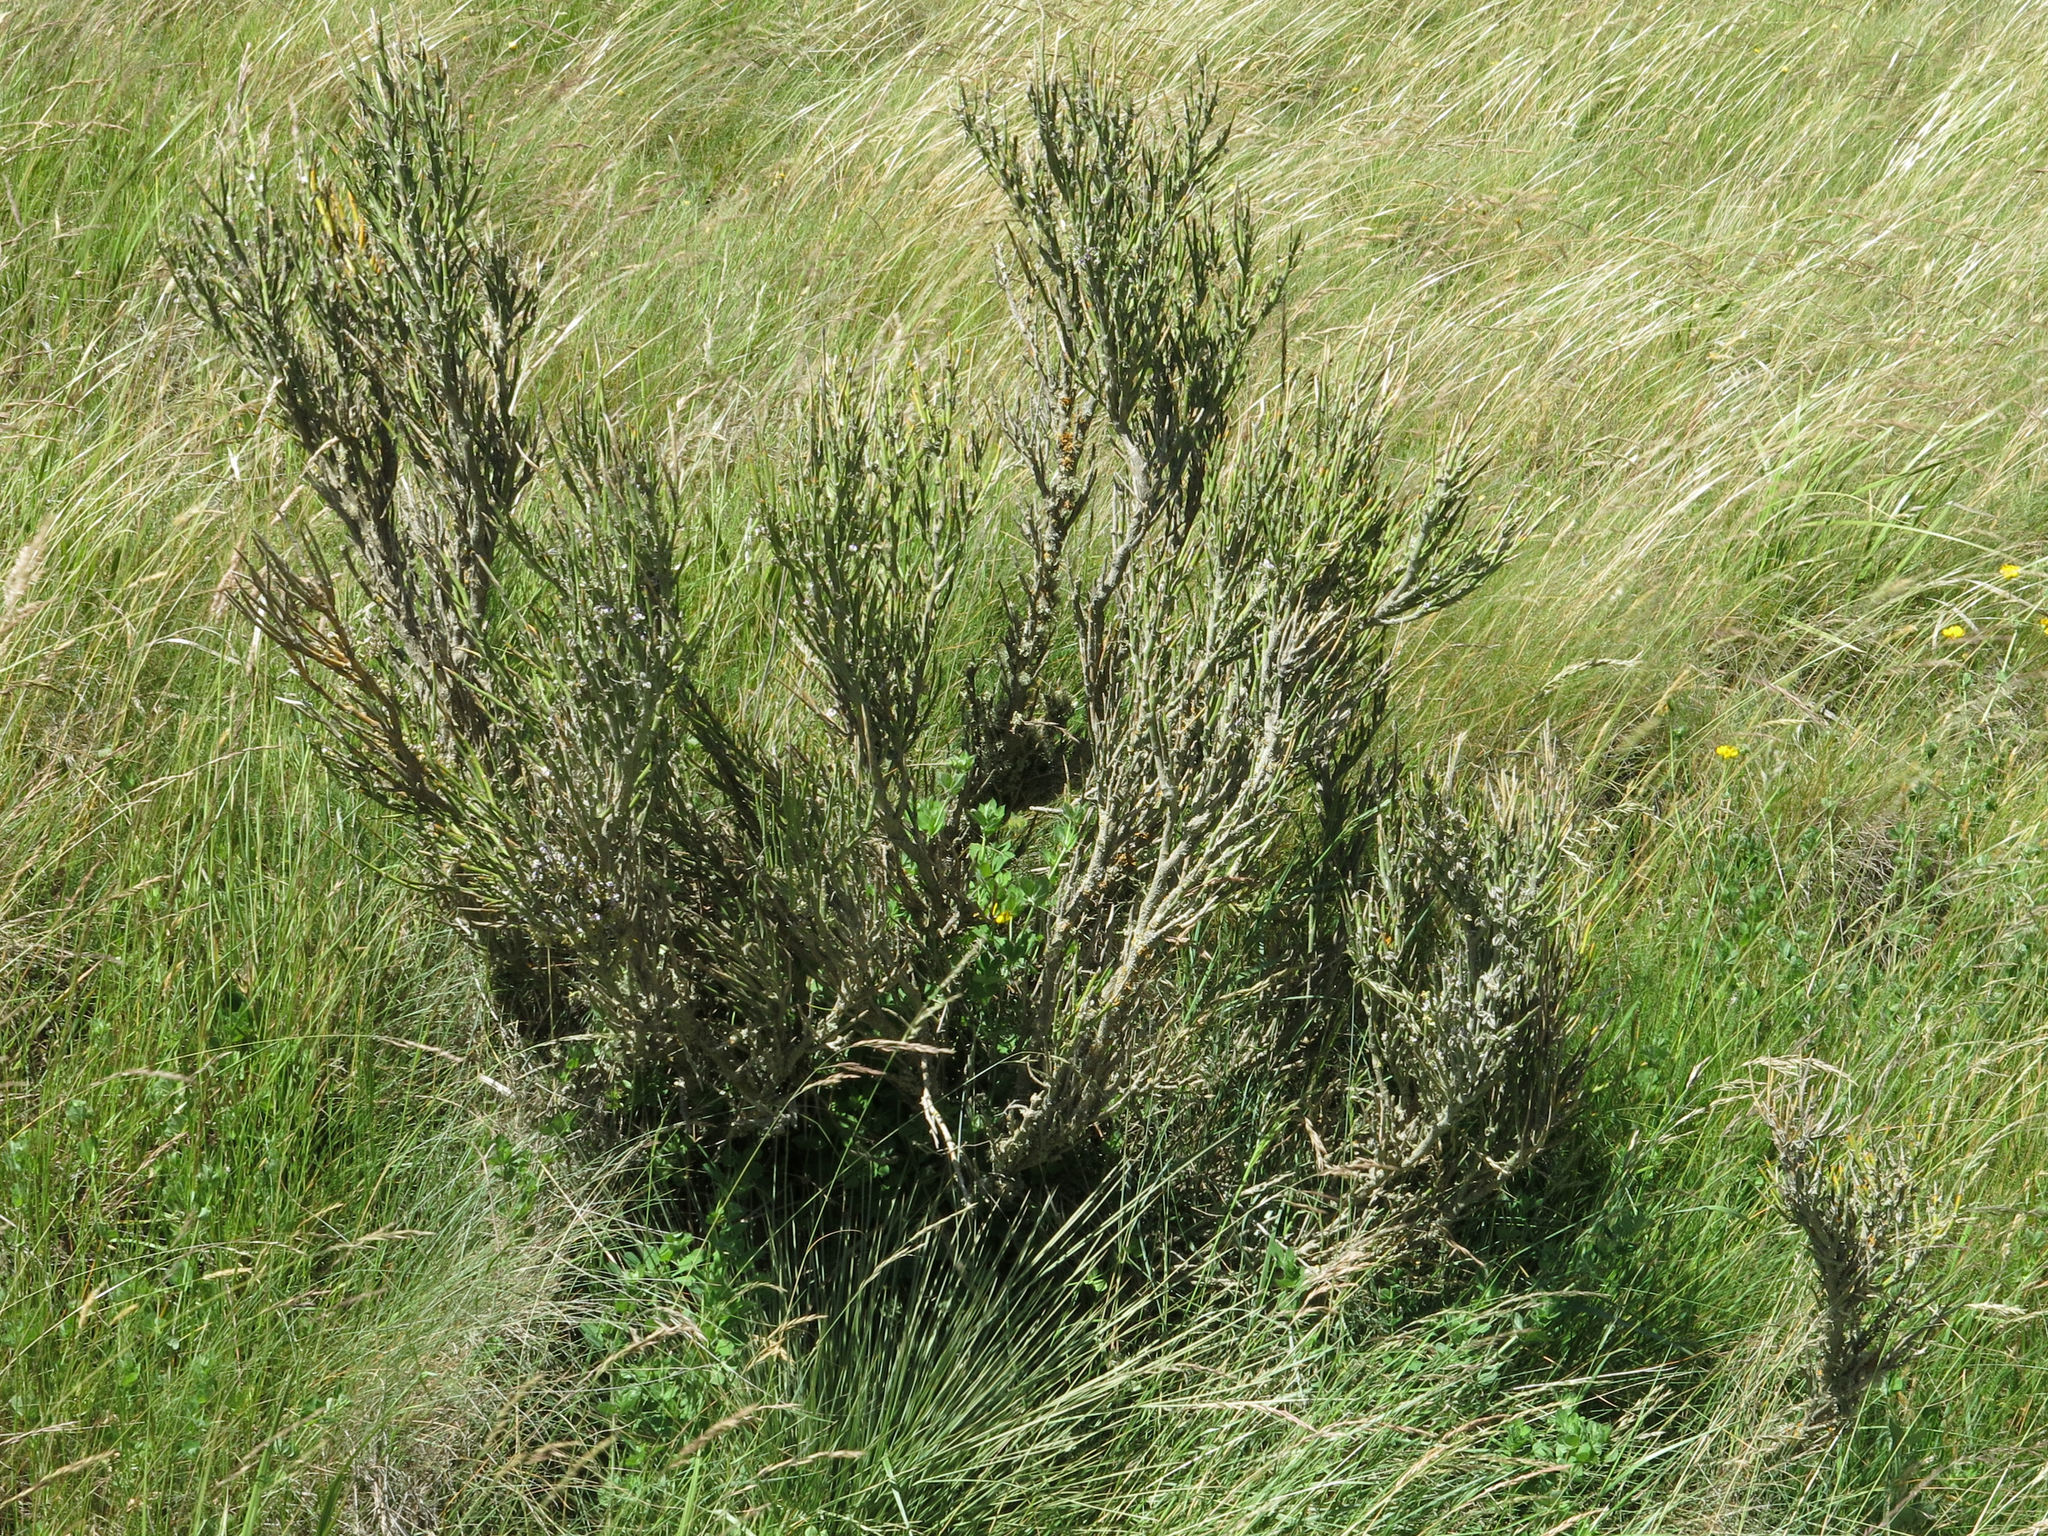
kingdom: Plantae
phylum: Tracheophyta
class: Magnoliopsida
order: Fabales
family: Fabaceae
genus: Carmichaelia
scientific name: Carmichaelia petriei
